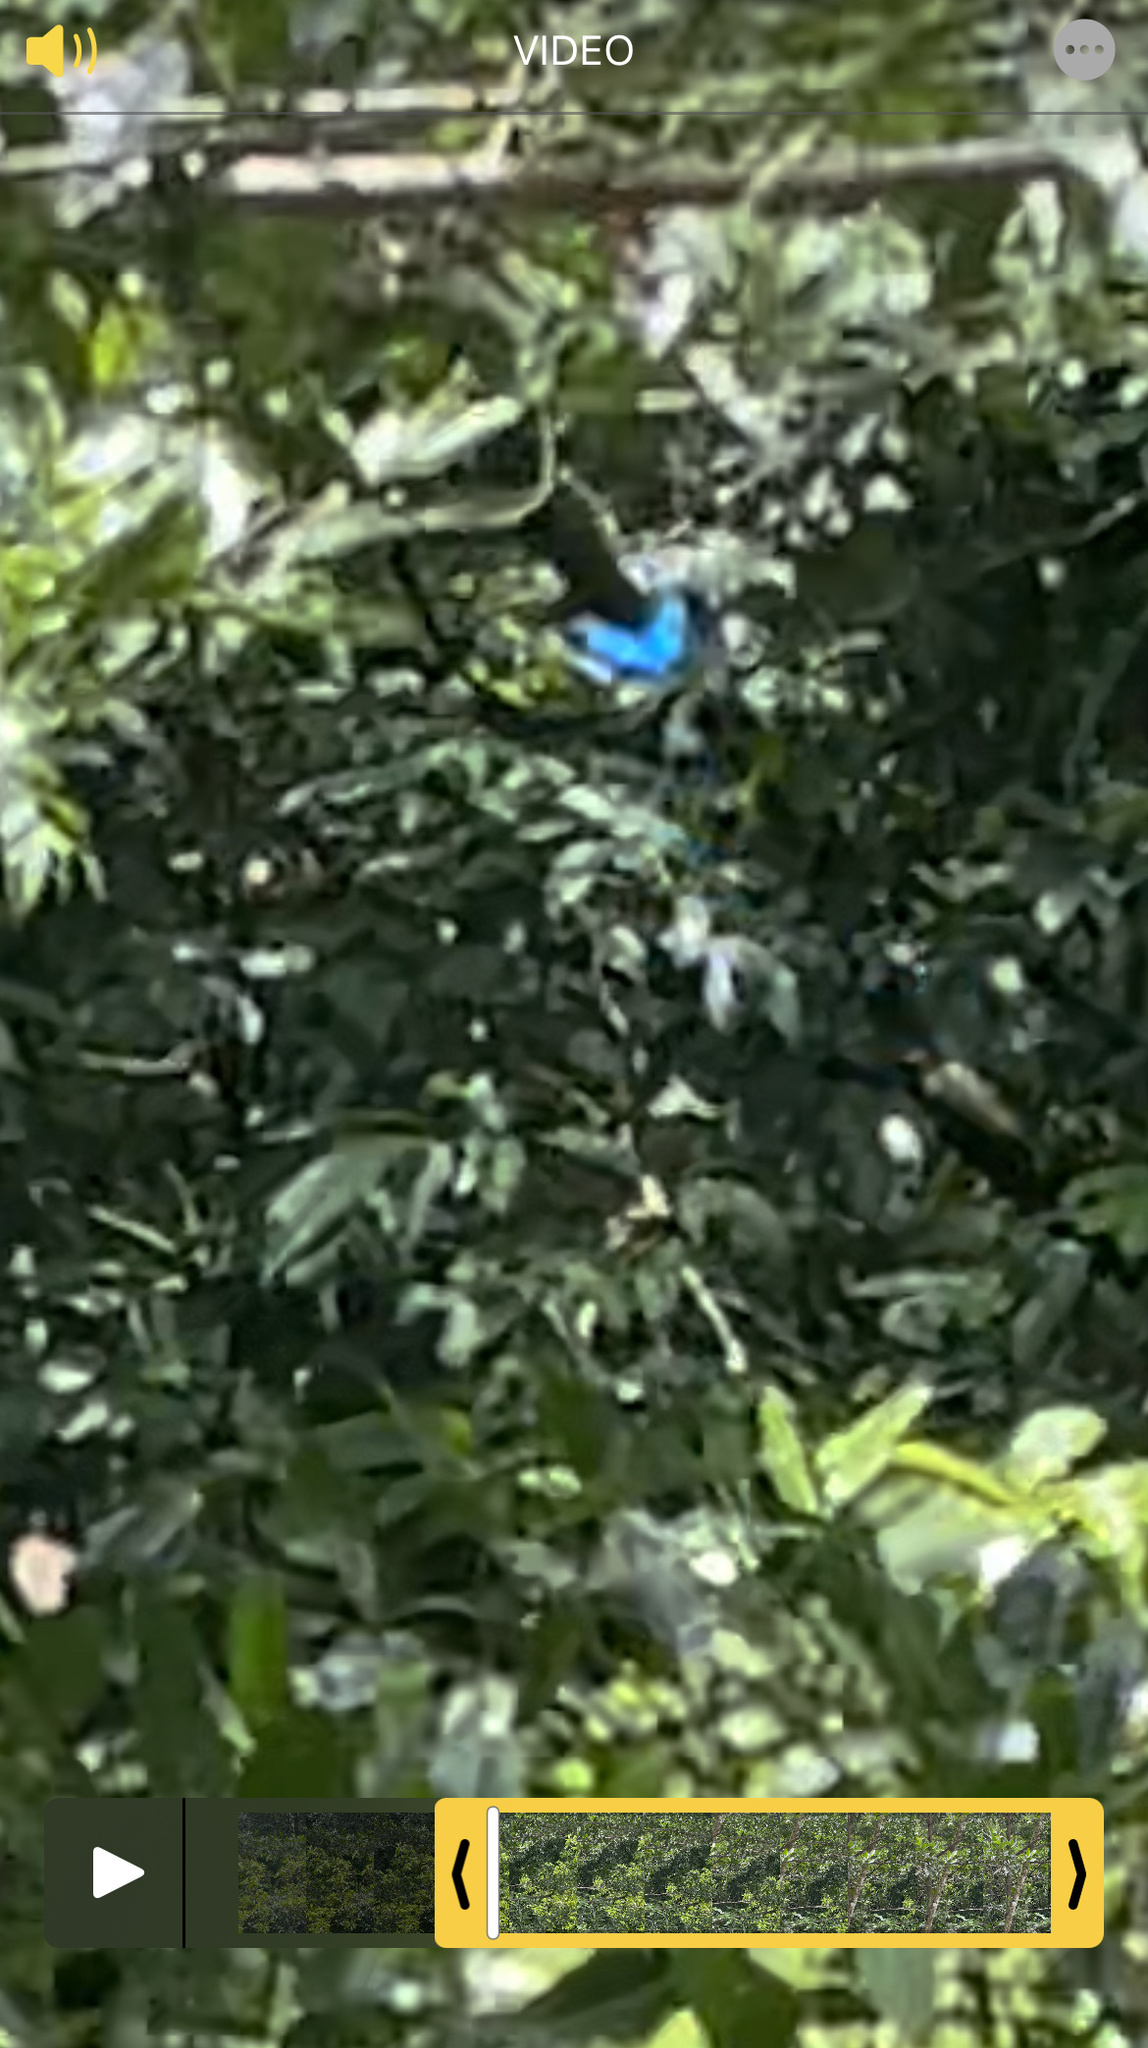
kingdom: Animalia
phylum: Arthropoda
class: Insecta
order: Lepidoptera
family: Papilionidae
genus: Papilio
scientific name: Papilio ulysses
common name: Blue emperor
